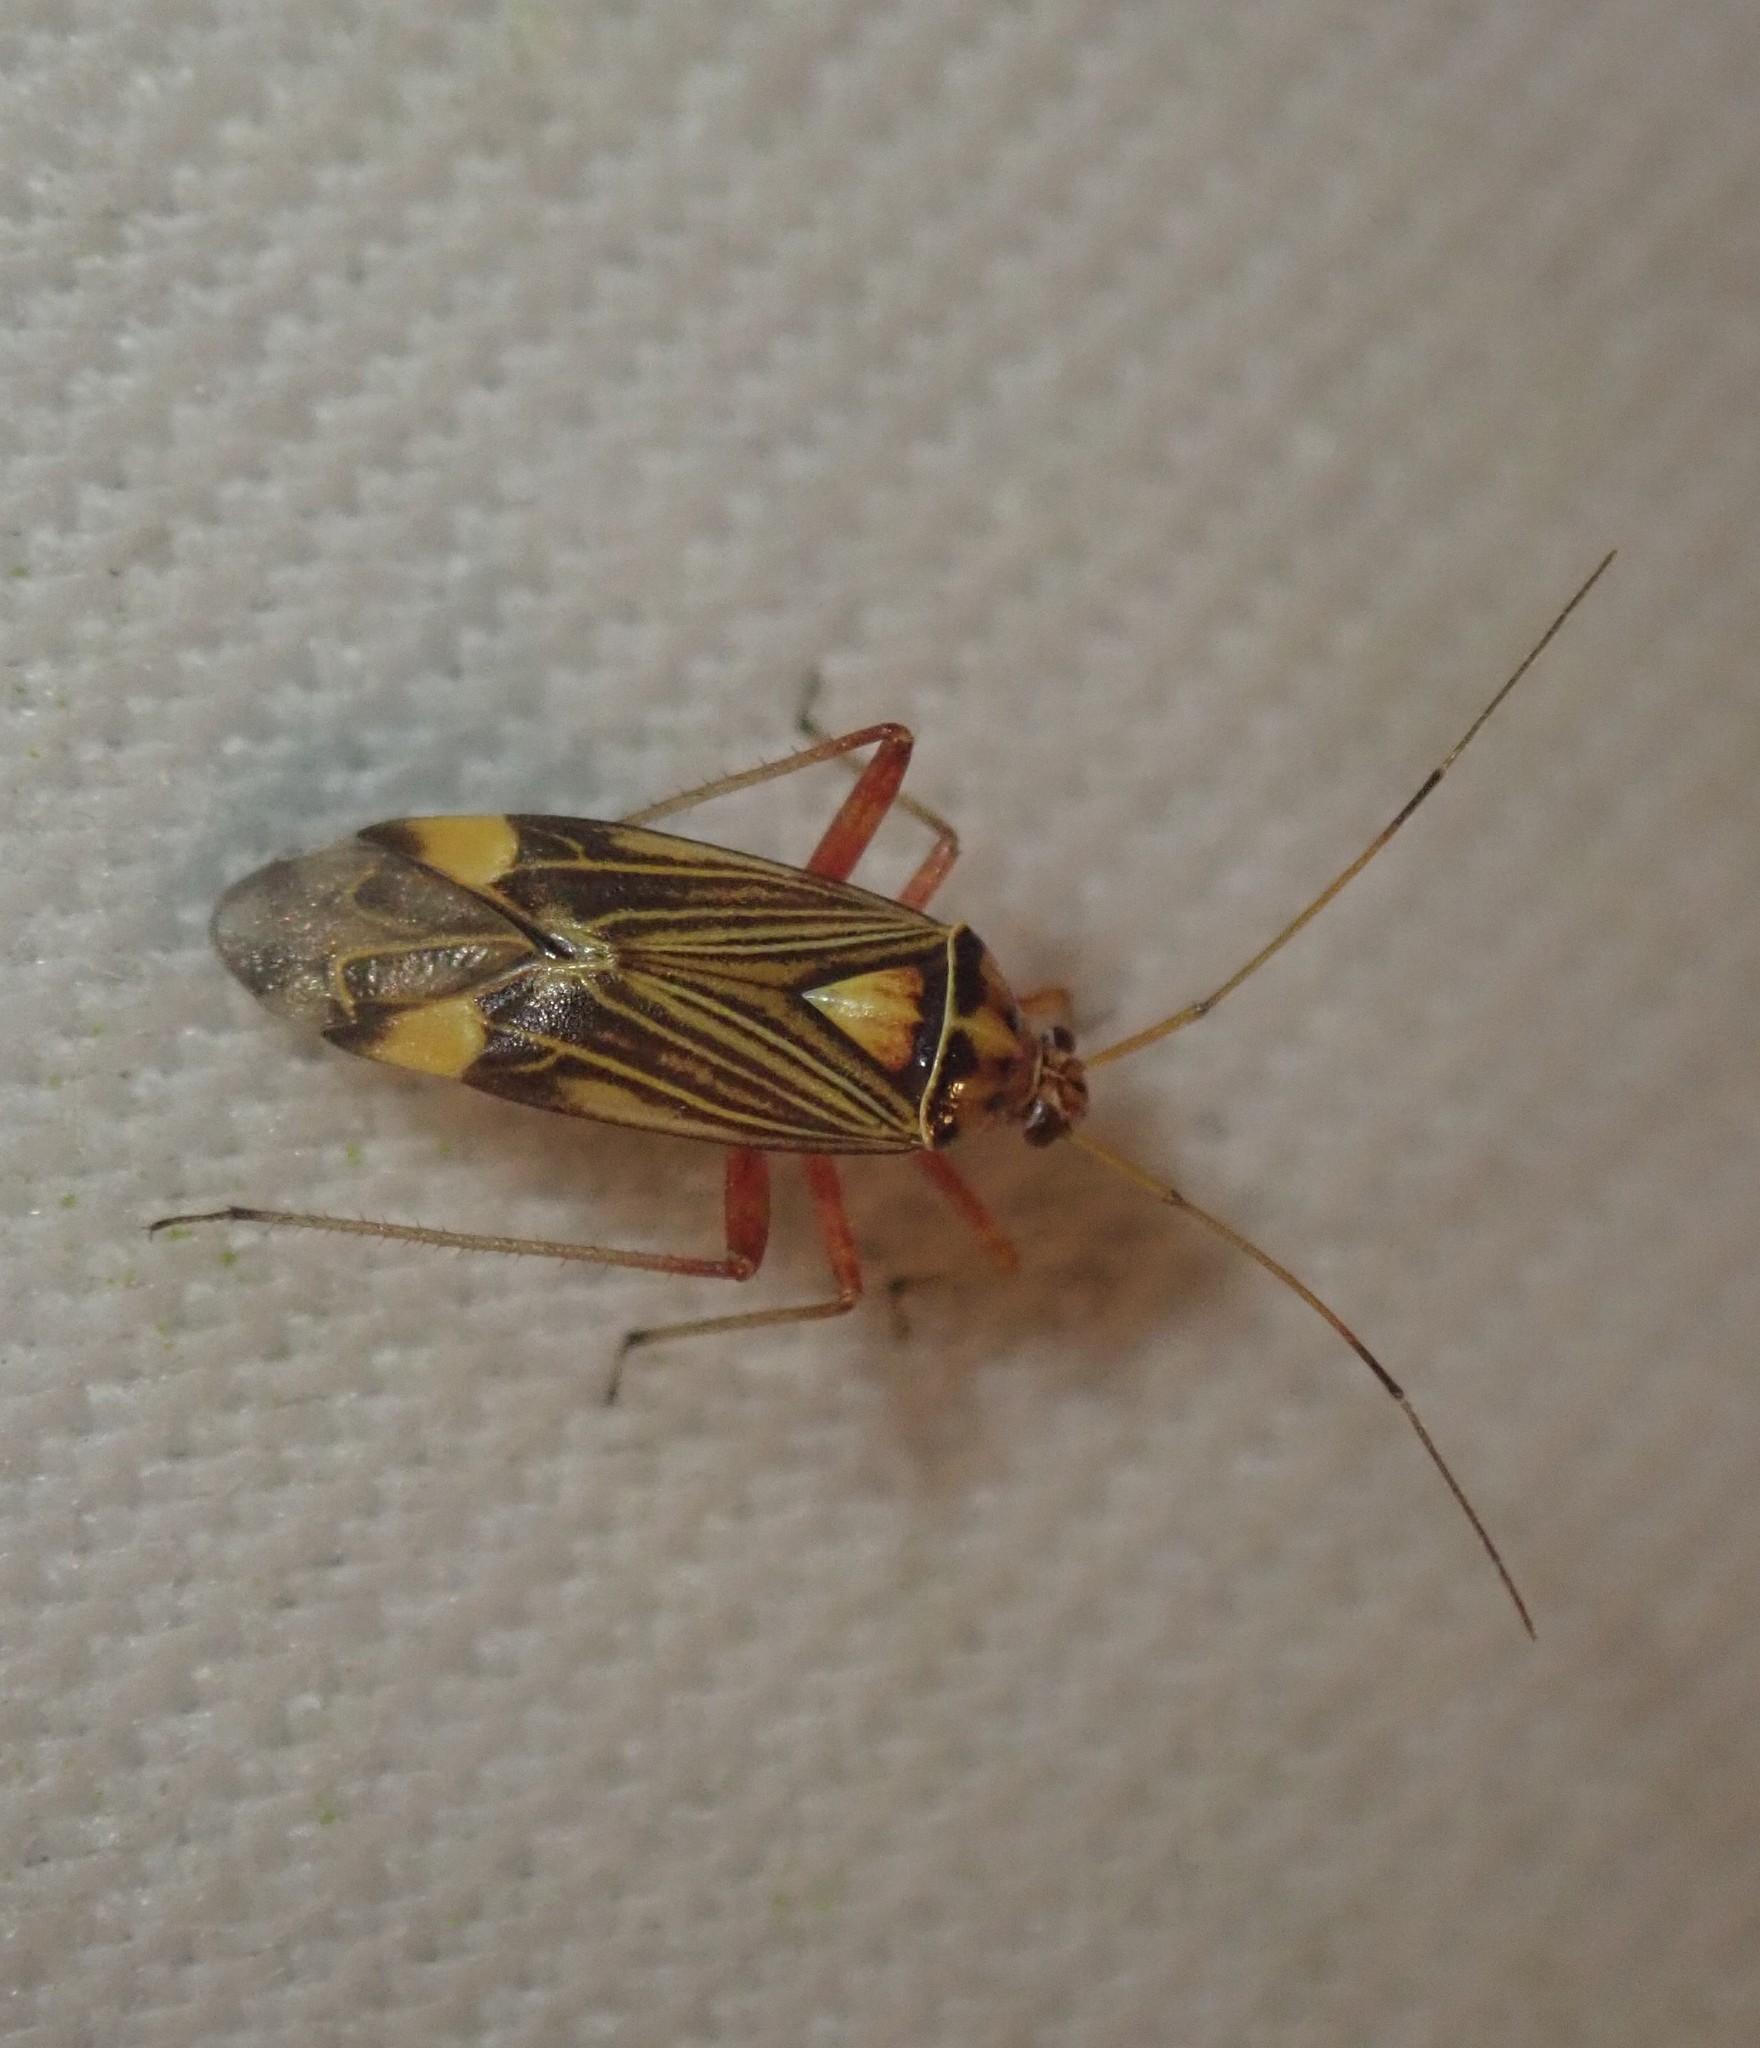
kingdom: Animalia
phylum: Arthropoda
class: Insecta
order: Hemiptera
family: Miridae
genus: Rhabdomiris
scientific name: Rhabdomiris striatellus
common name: Plant bug
